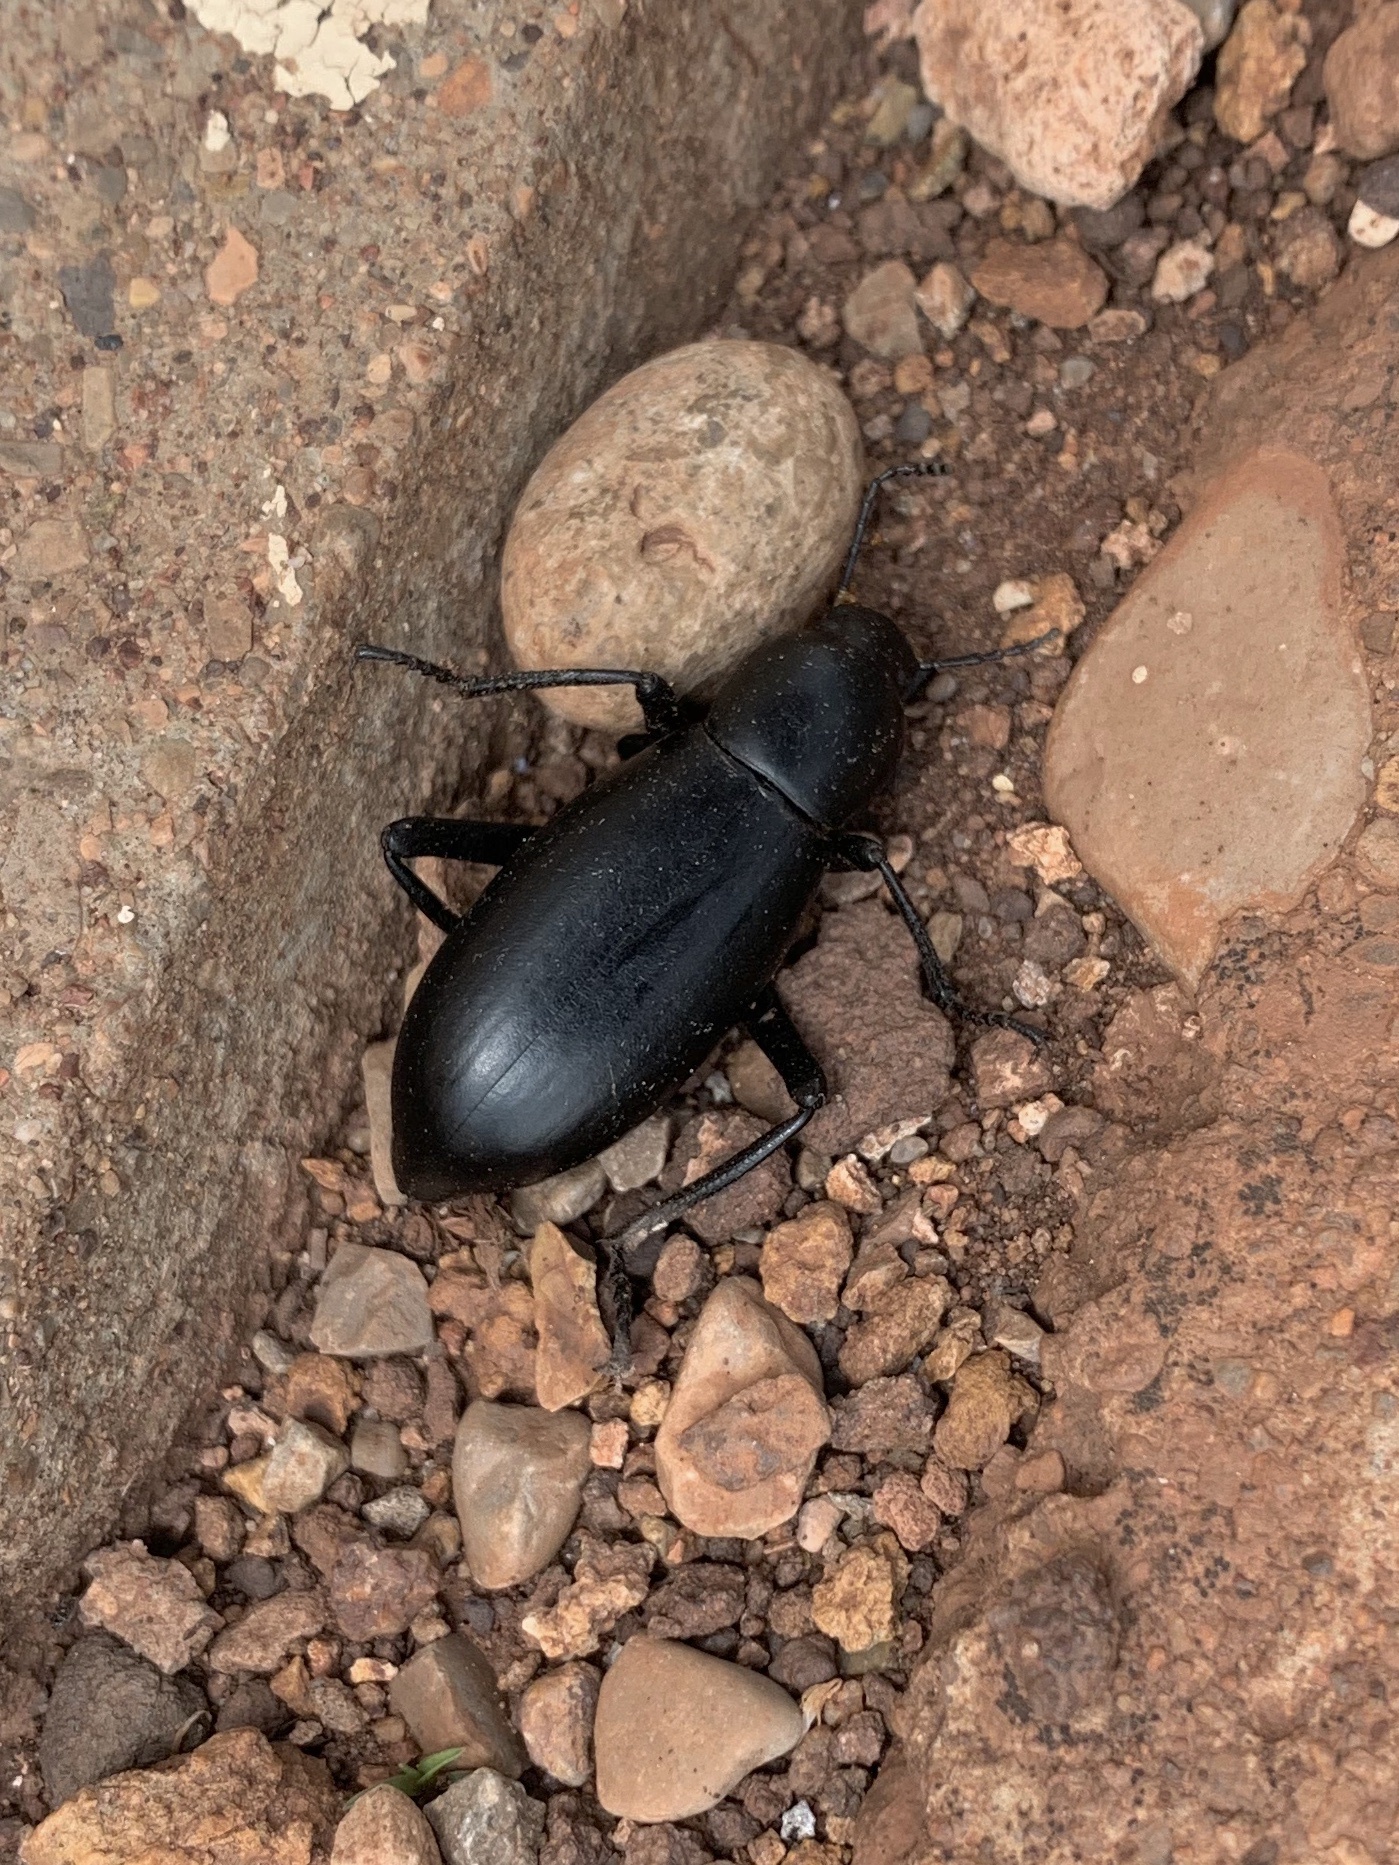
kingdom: Animalia
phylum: Arthropoda
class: Insecta
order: Coleoptera
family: Tenebrionidae
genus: Eleodes
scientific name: Eleodes longicollis
